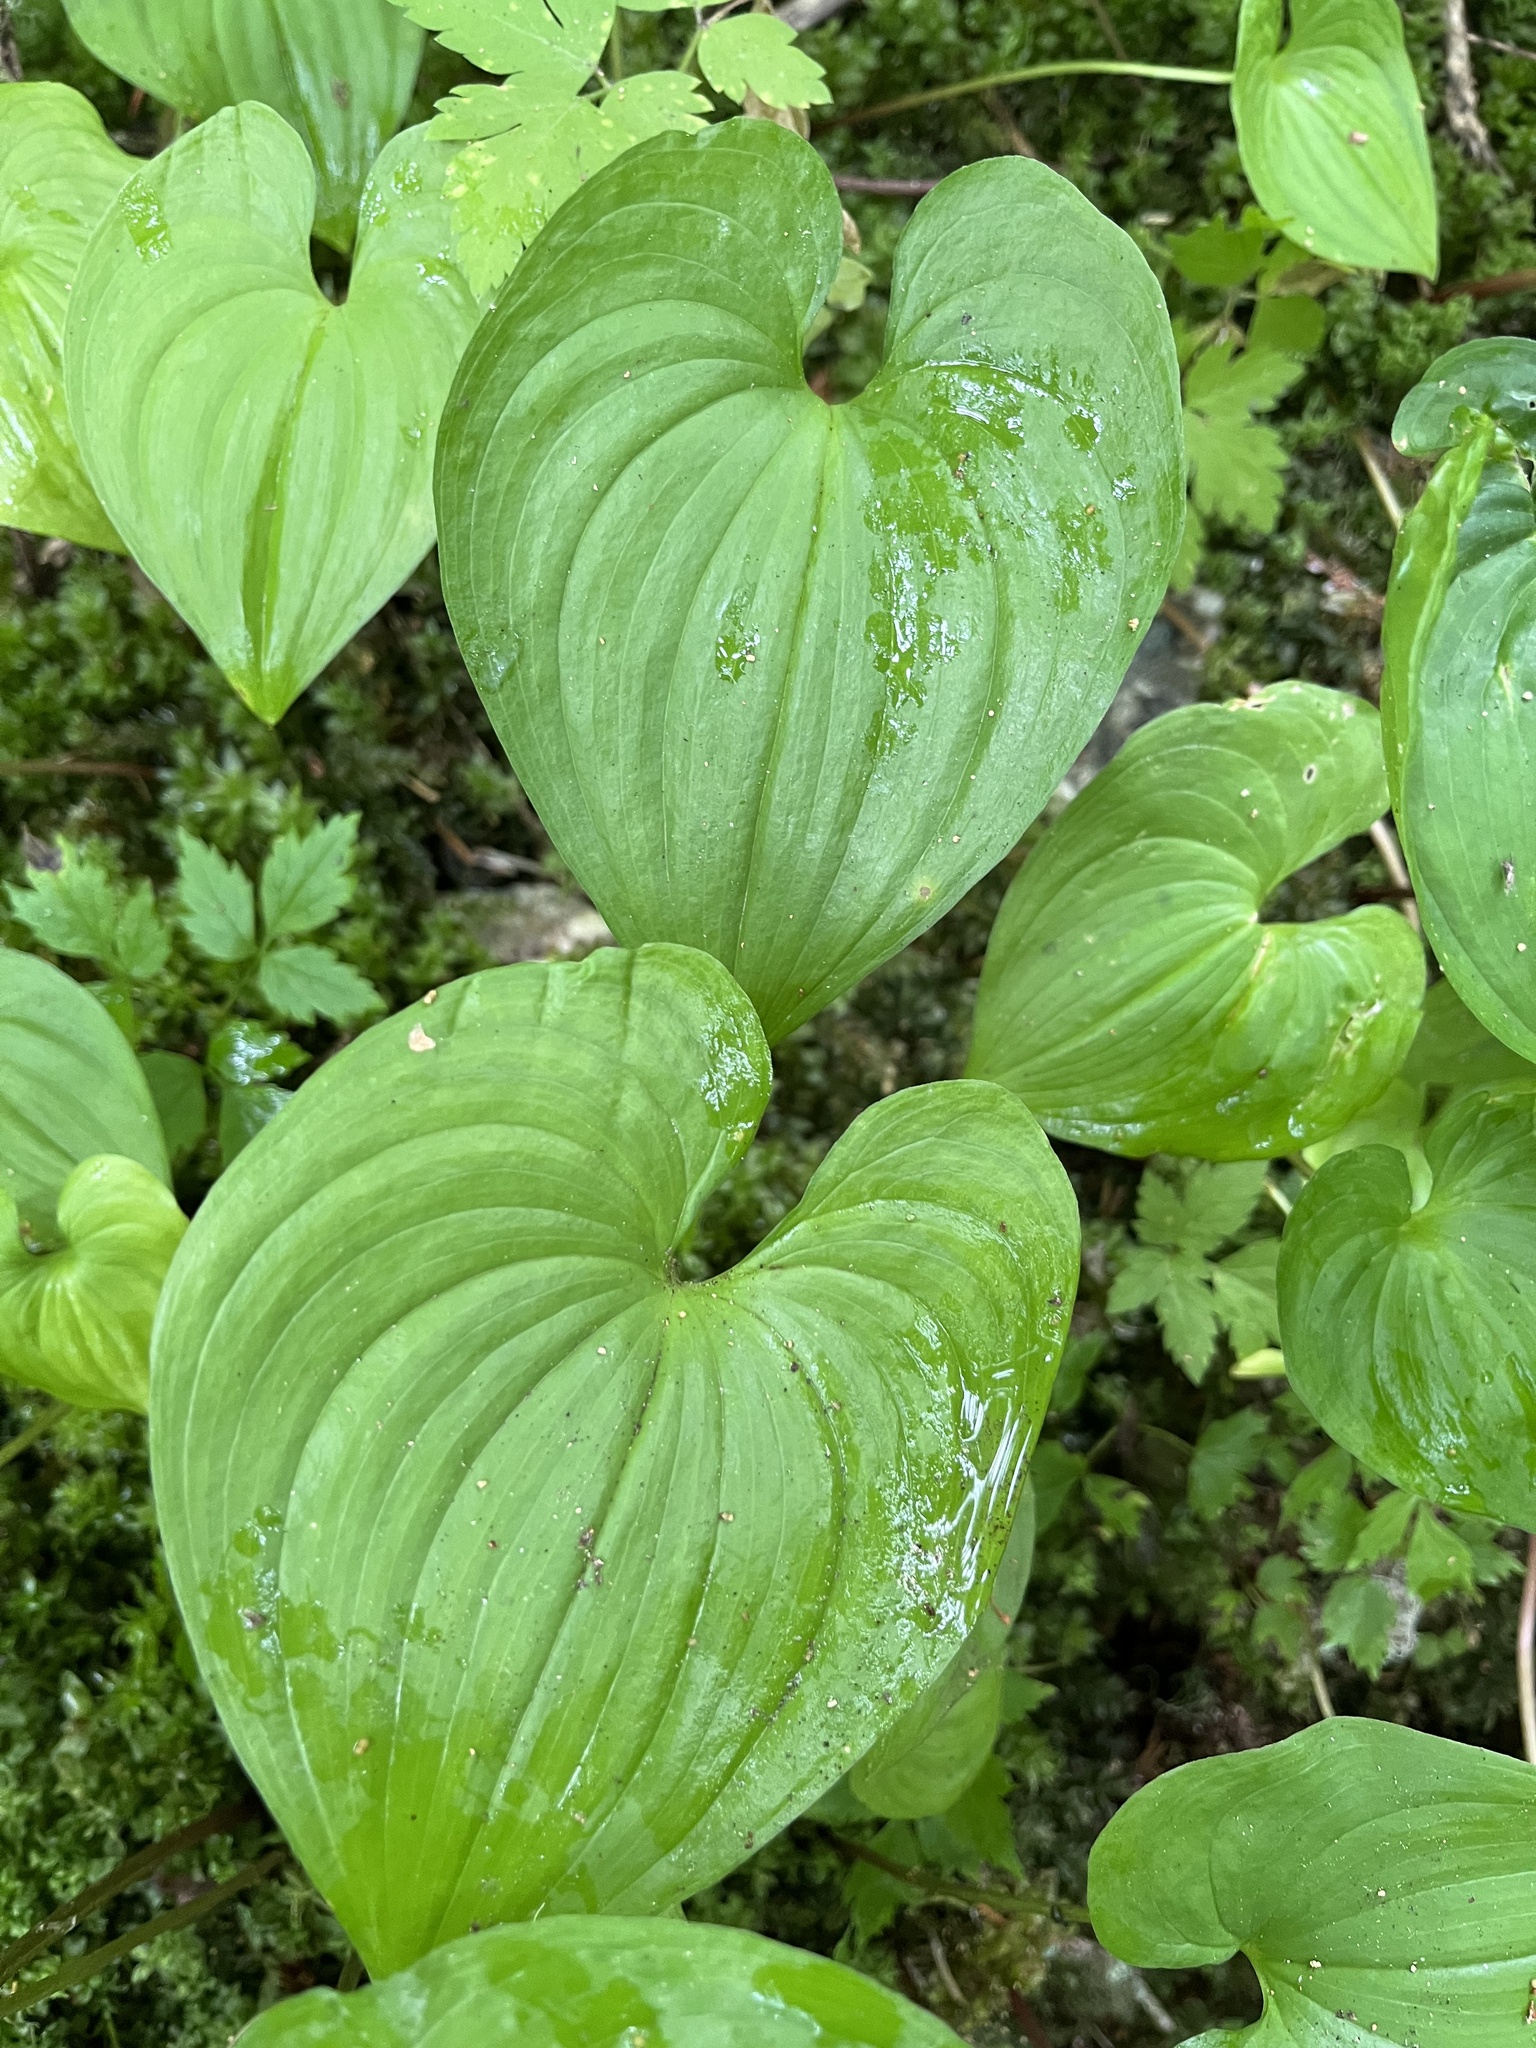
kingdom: Plantae
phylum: Tracheophyta
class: Liliopsida
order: Asparagales
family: Asparagaceae
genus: Maianthemum
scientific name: Maianthemum dilatatum
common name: False lily-of-the-valley
